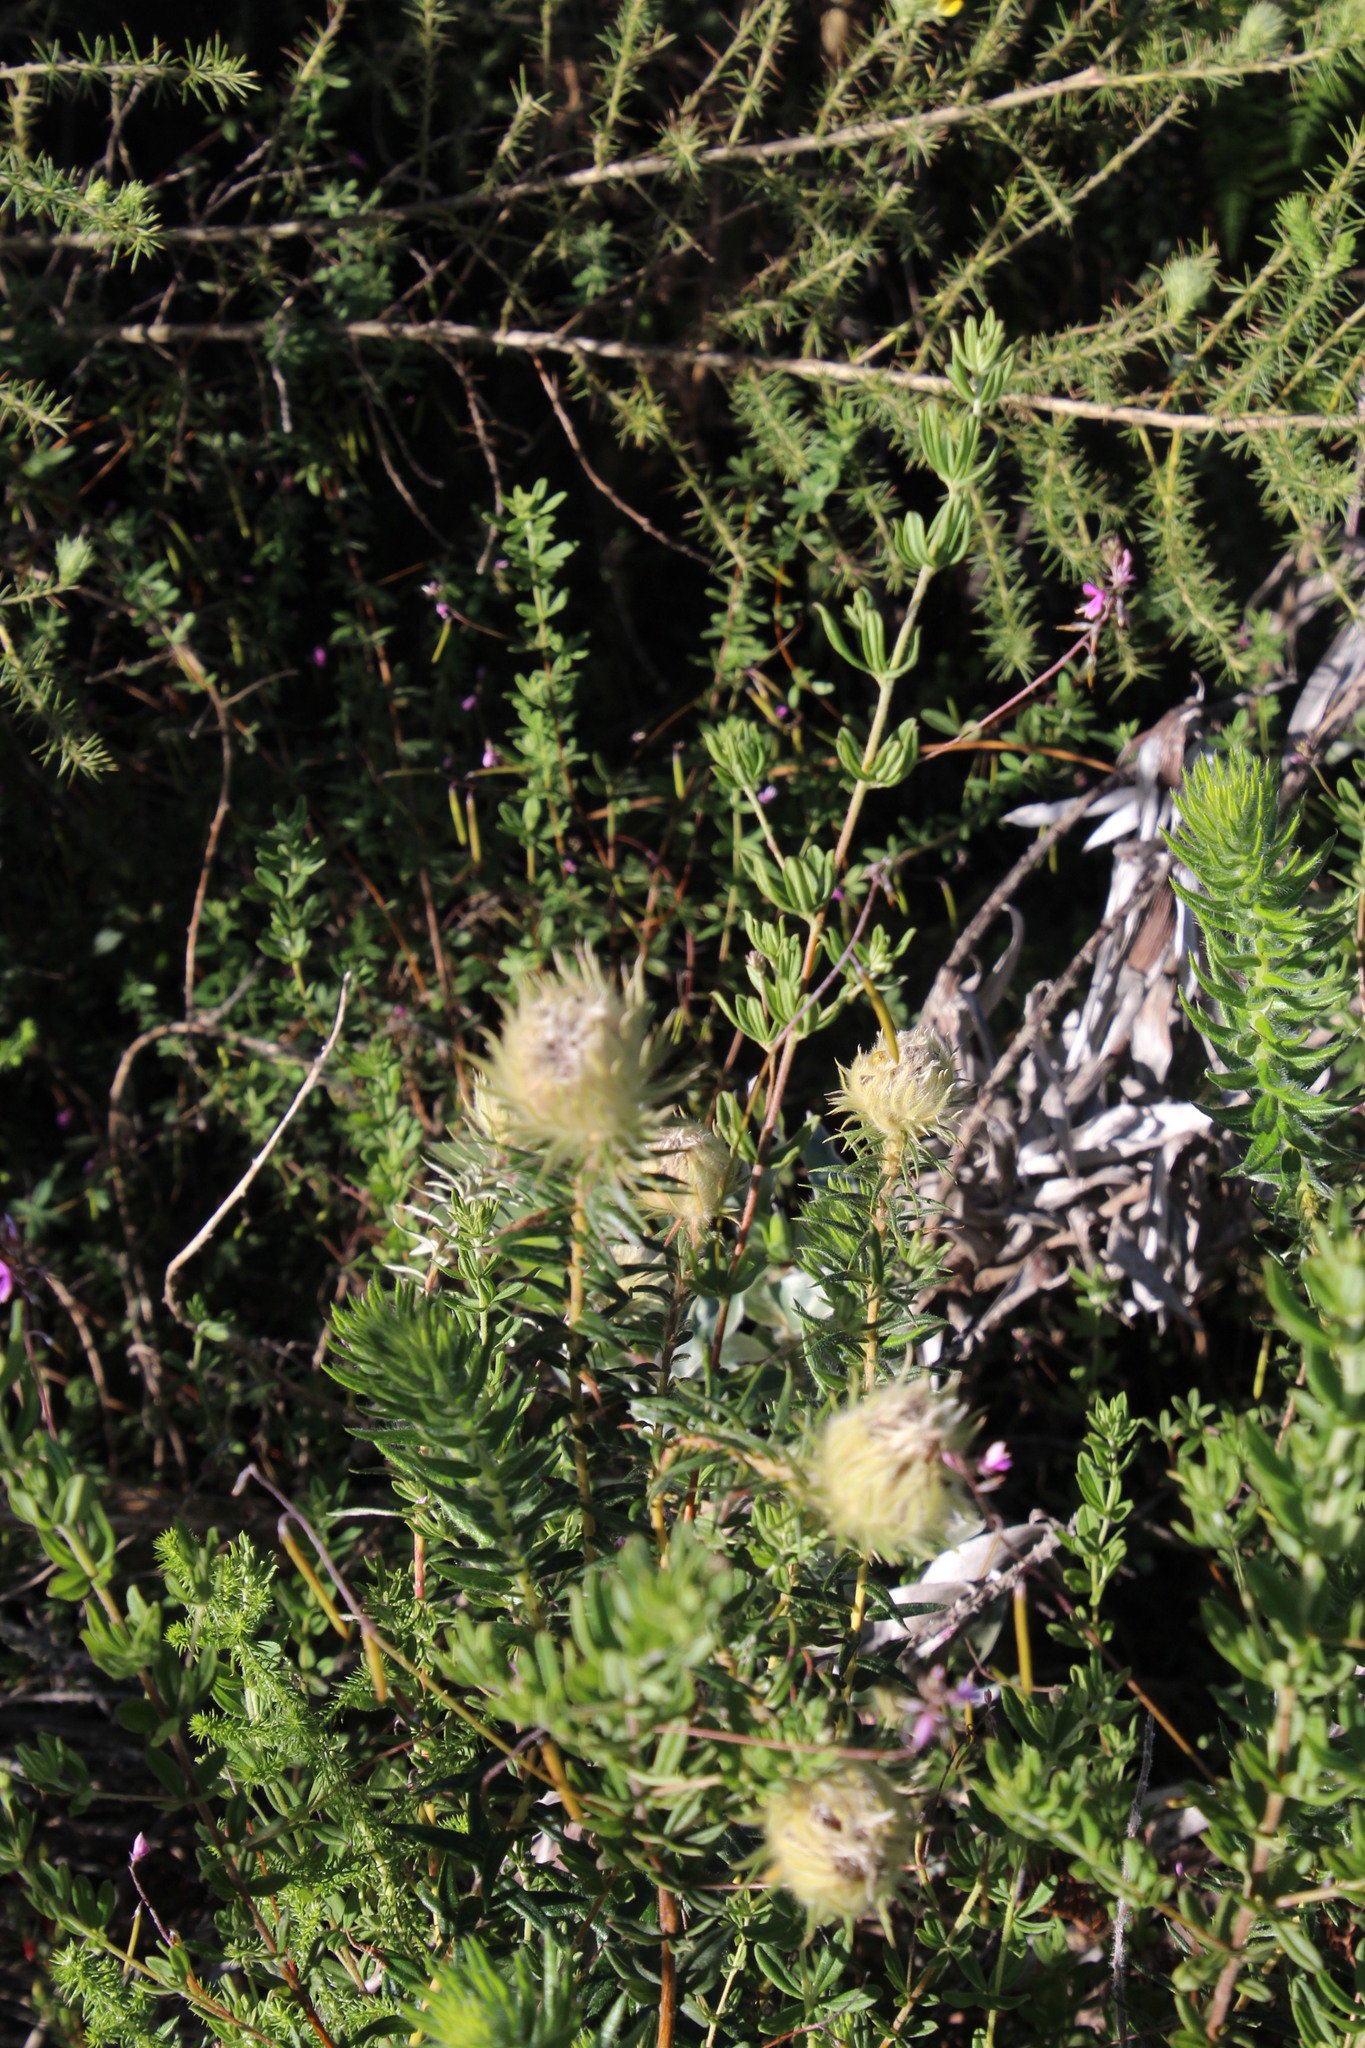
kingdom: Plantae
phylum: Tracheophyta
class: Magnoliopsida
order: Fabales
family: Fabaceae
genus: Indigofera
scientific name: Indigofera filiformis
